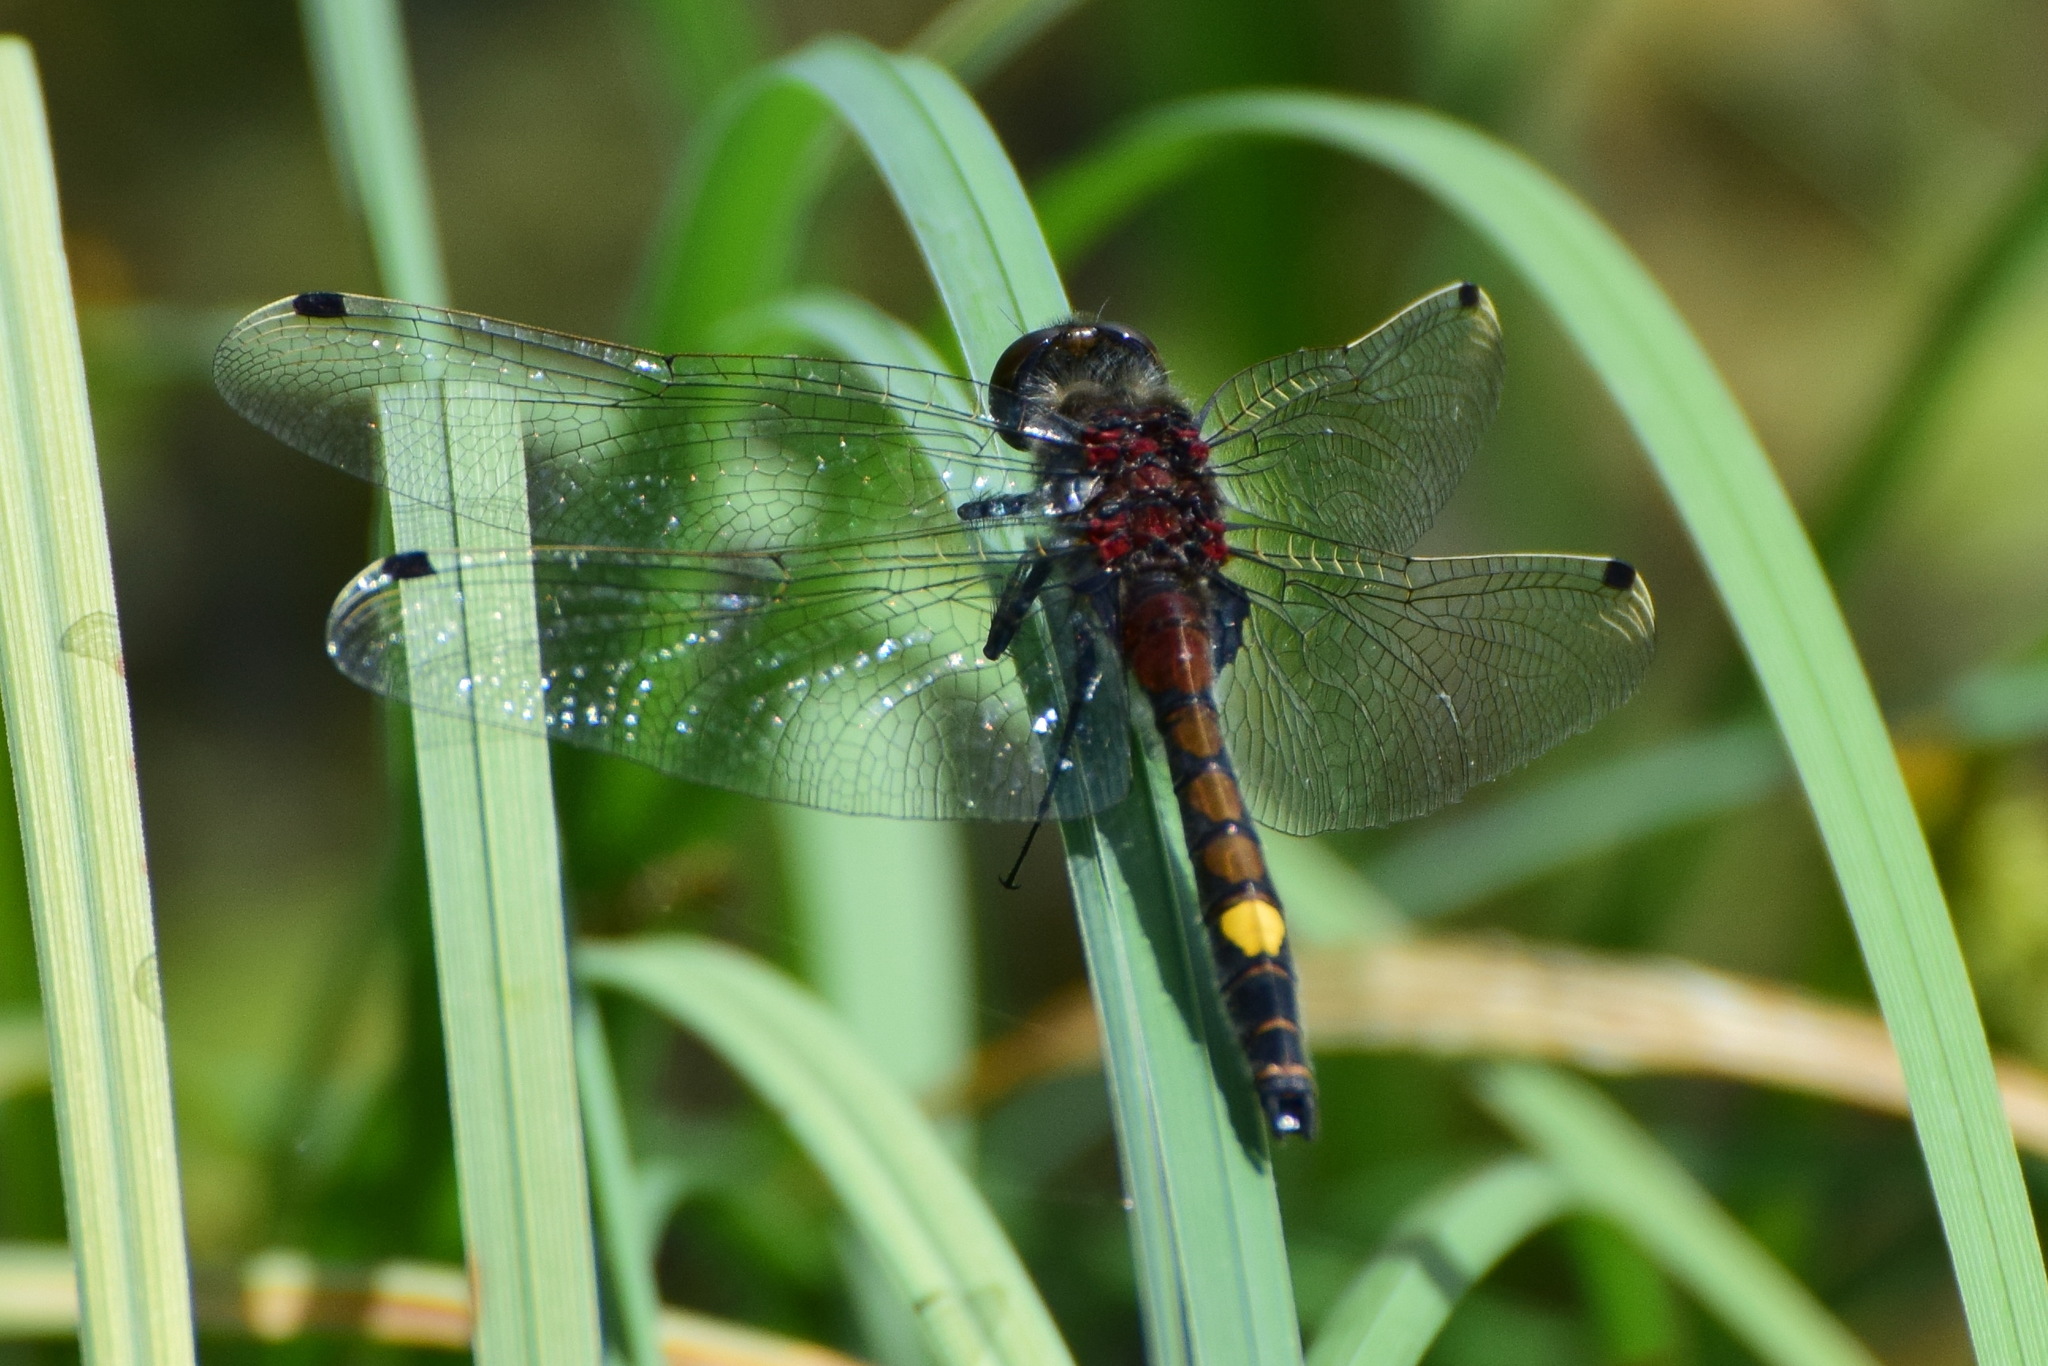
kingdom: Animalia
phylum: Arthropoda
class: Insecta
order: Odonata
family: Libellulidae
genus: Leucorrhinia
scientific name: Leucorrhinia pectoralis
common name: Yellow-spotted whiteface
